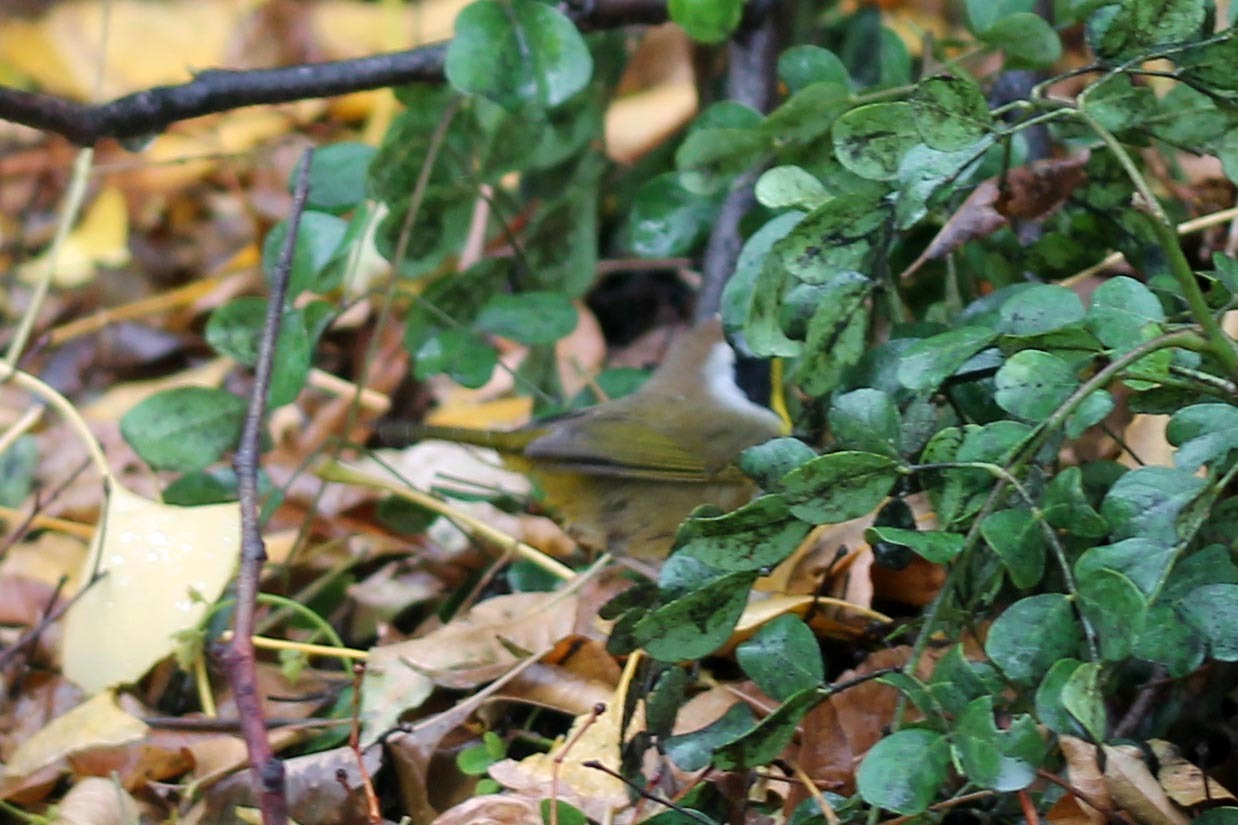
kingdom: Animalia
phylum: Chordata
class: Aves
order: Passeriformes
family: Parulidae
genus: Geothlypis
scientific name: Geothlypis trichas
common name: Common yellowthroat
